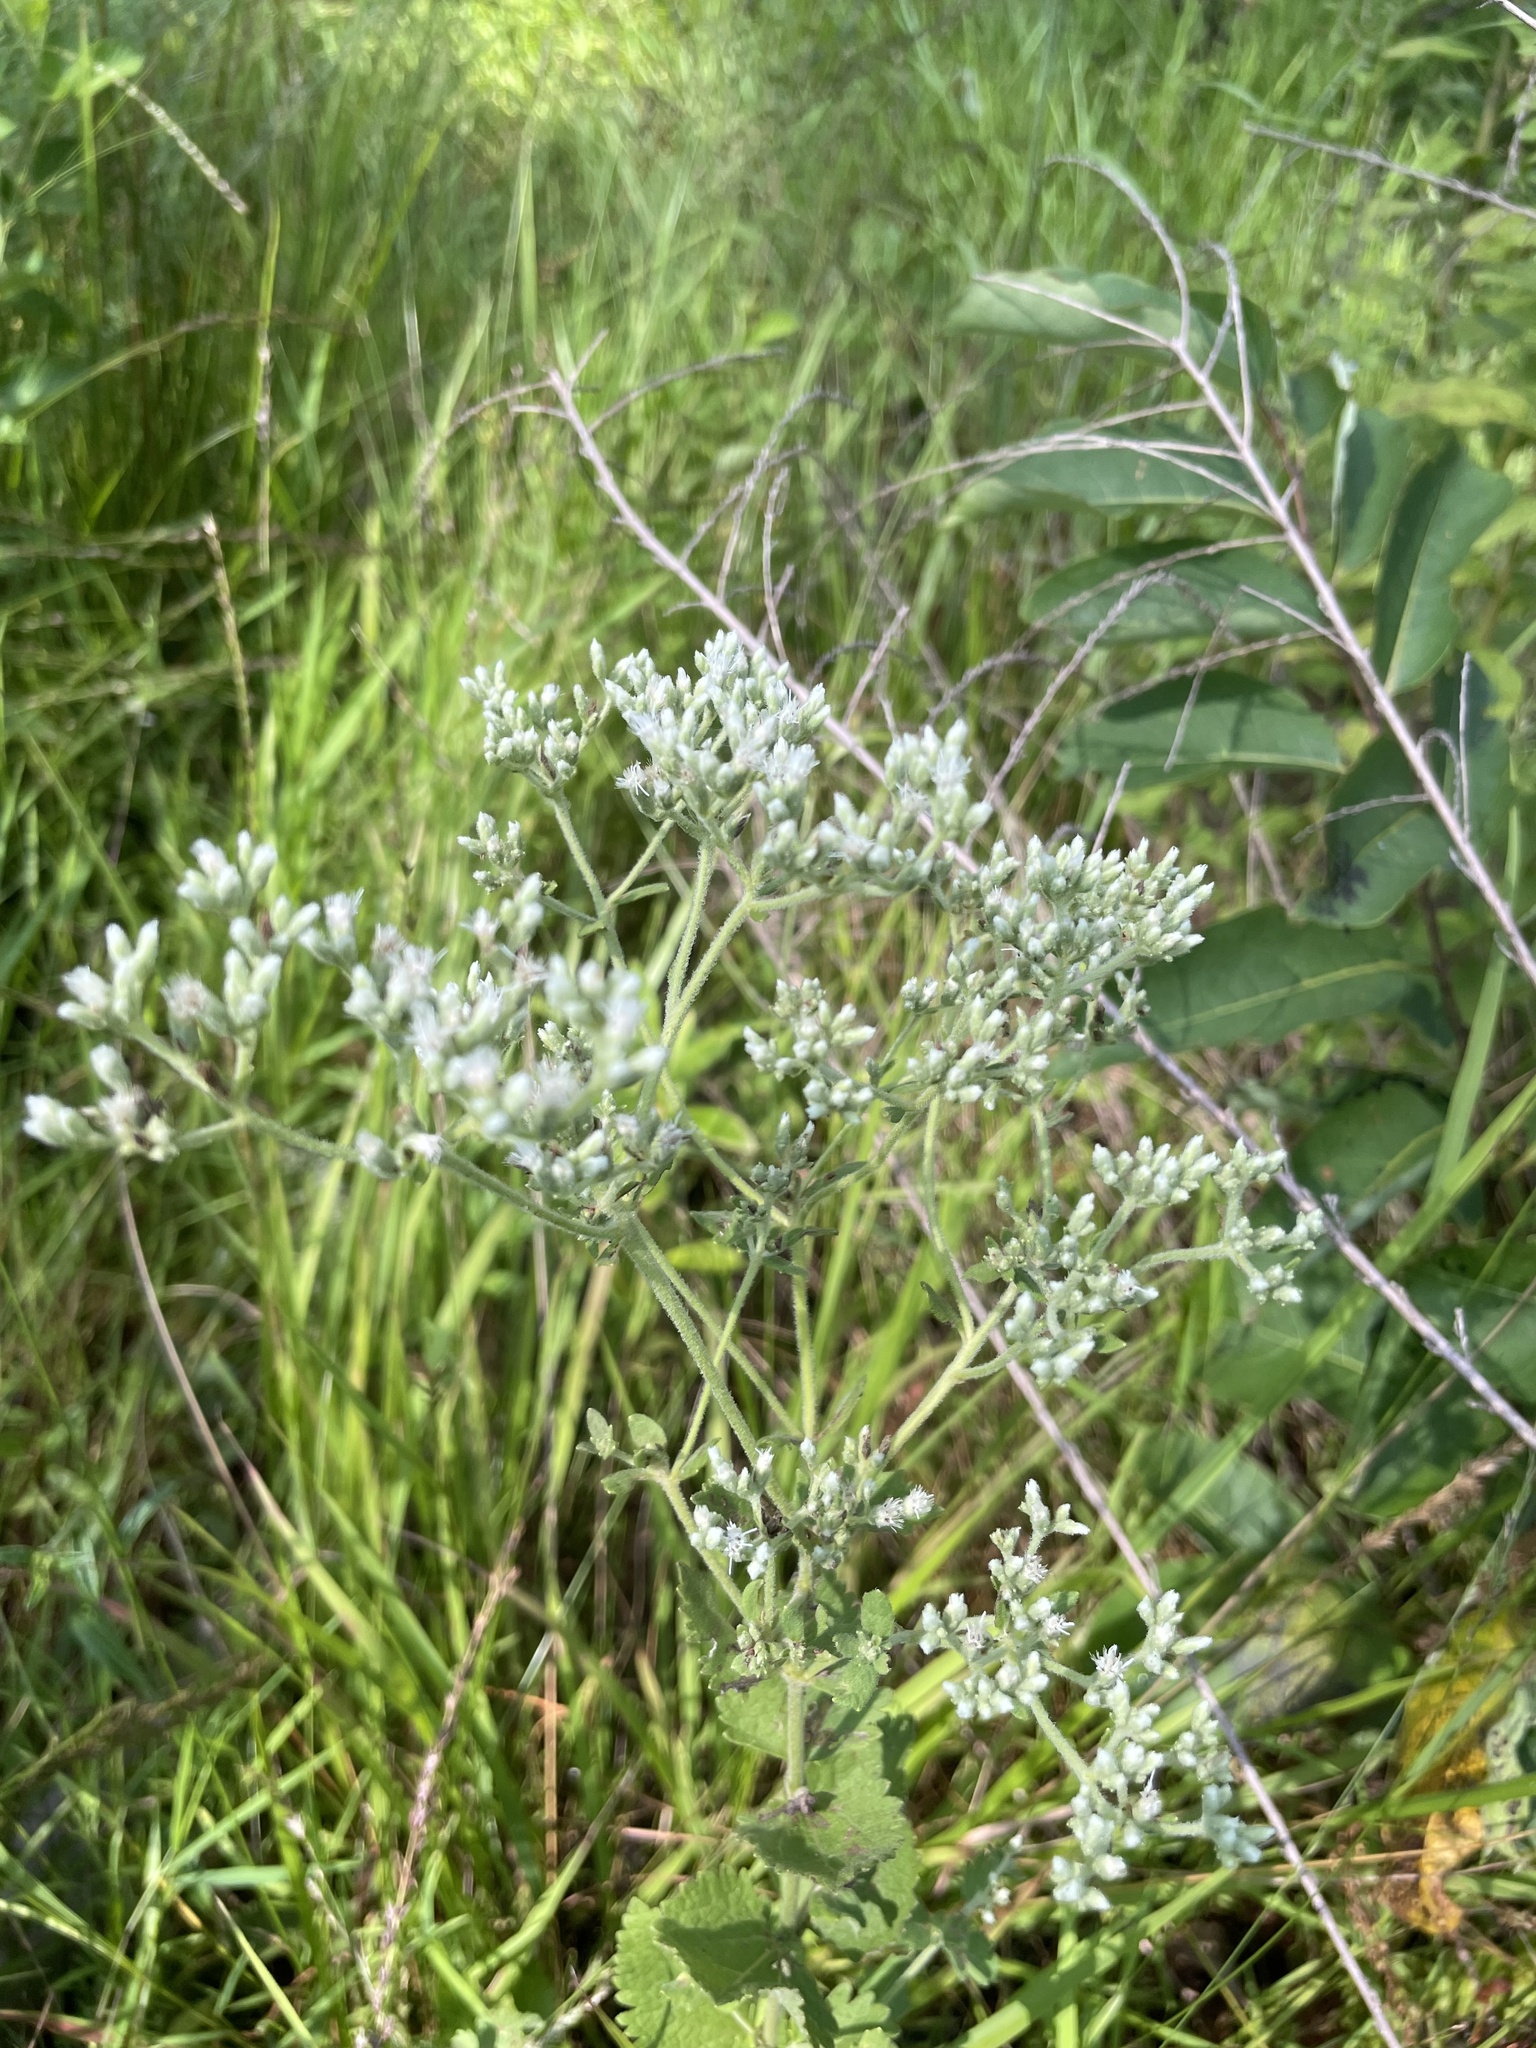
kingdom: Plantae
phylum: Tracheophyta
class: Magnoliopsida
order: Asterales
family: Asteraceae
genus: Eupatorium
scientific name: Eupatorium rotundifolium
